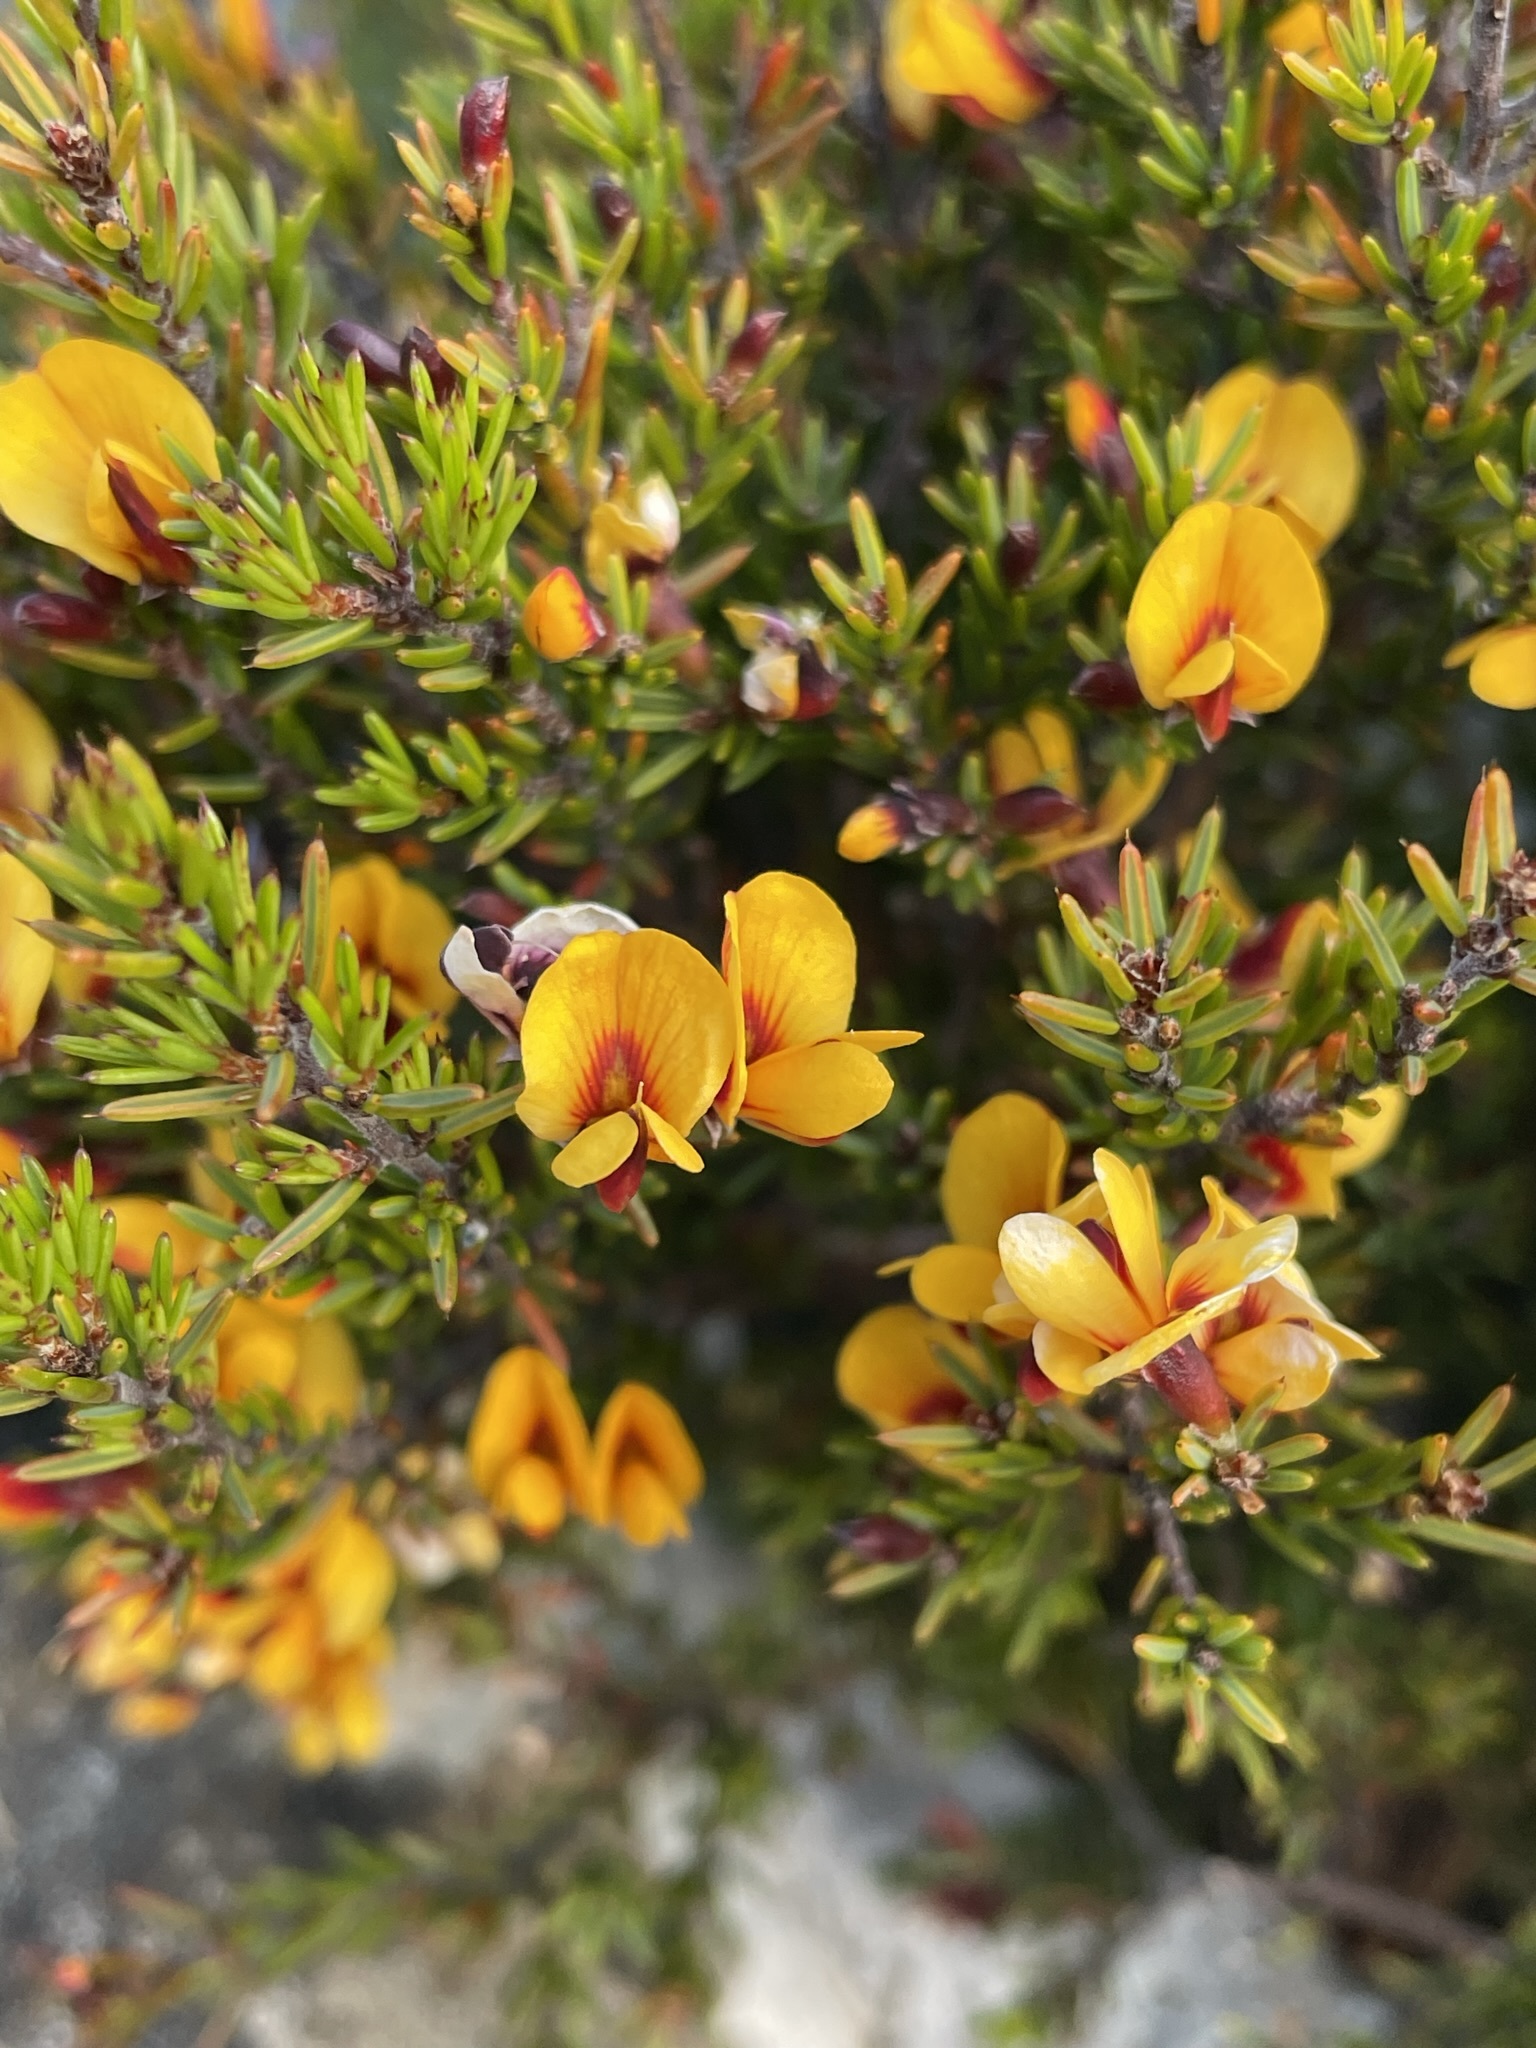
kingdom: Plantae
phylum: Tracheophyta
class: Magnoliopsida
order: Fabales
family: Fabaceae
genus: Pultenaea
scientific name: Pultenaea juniperina
